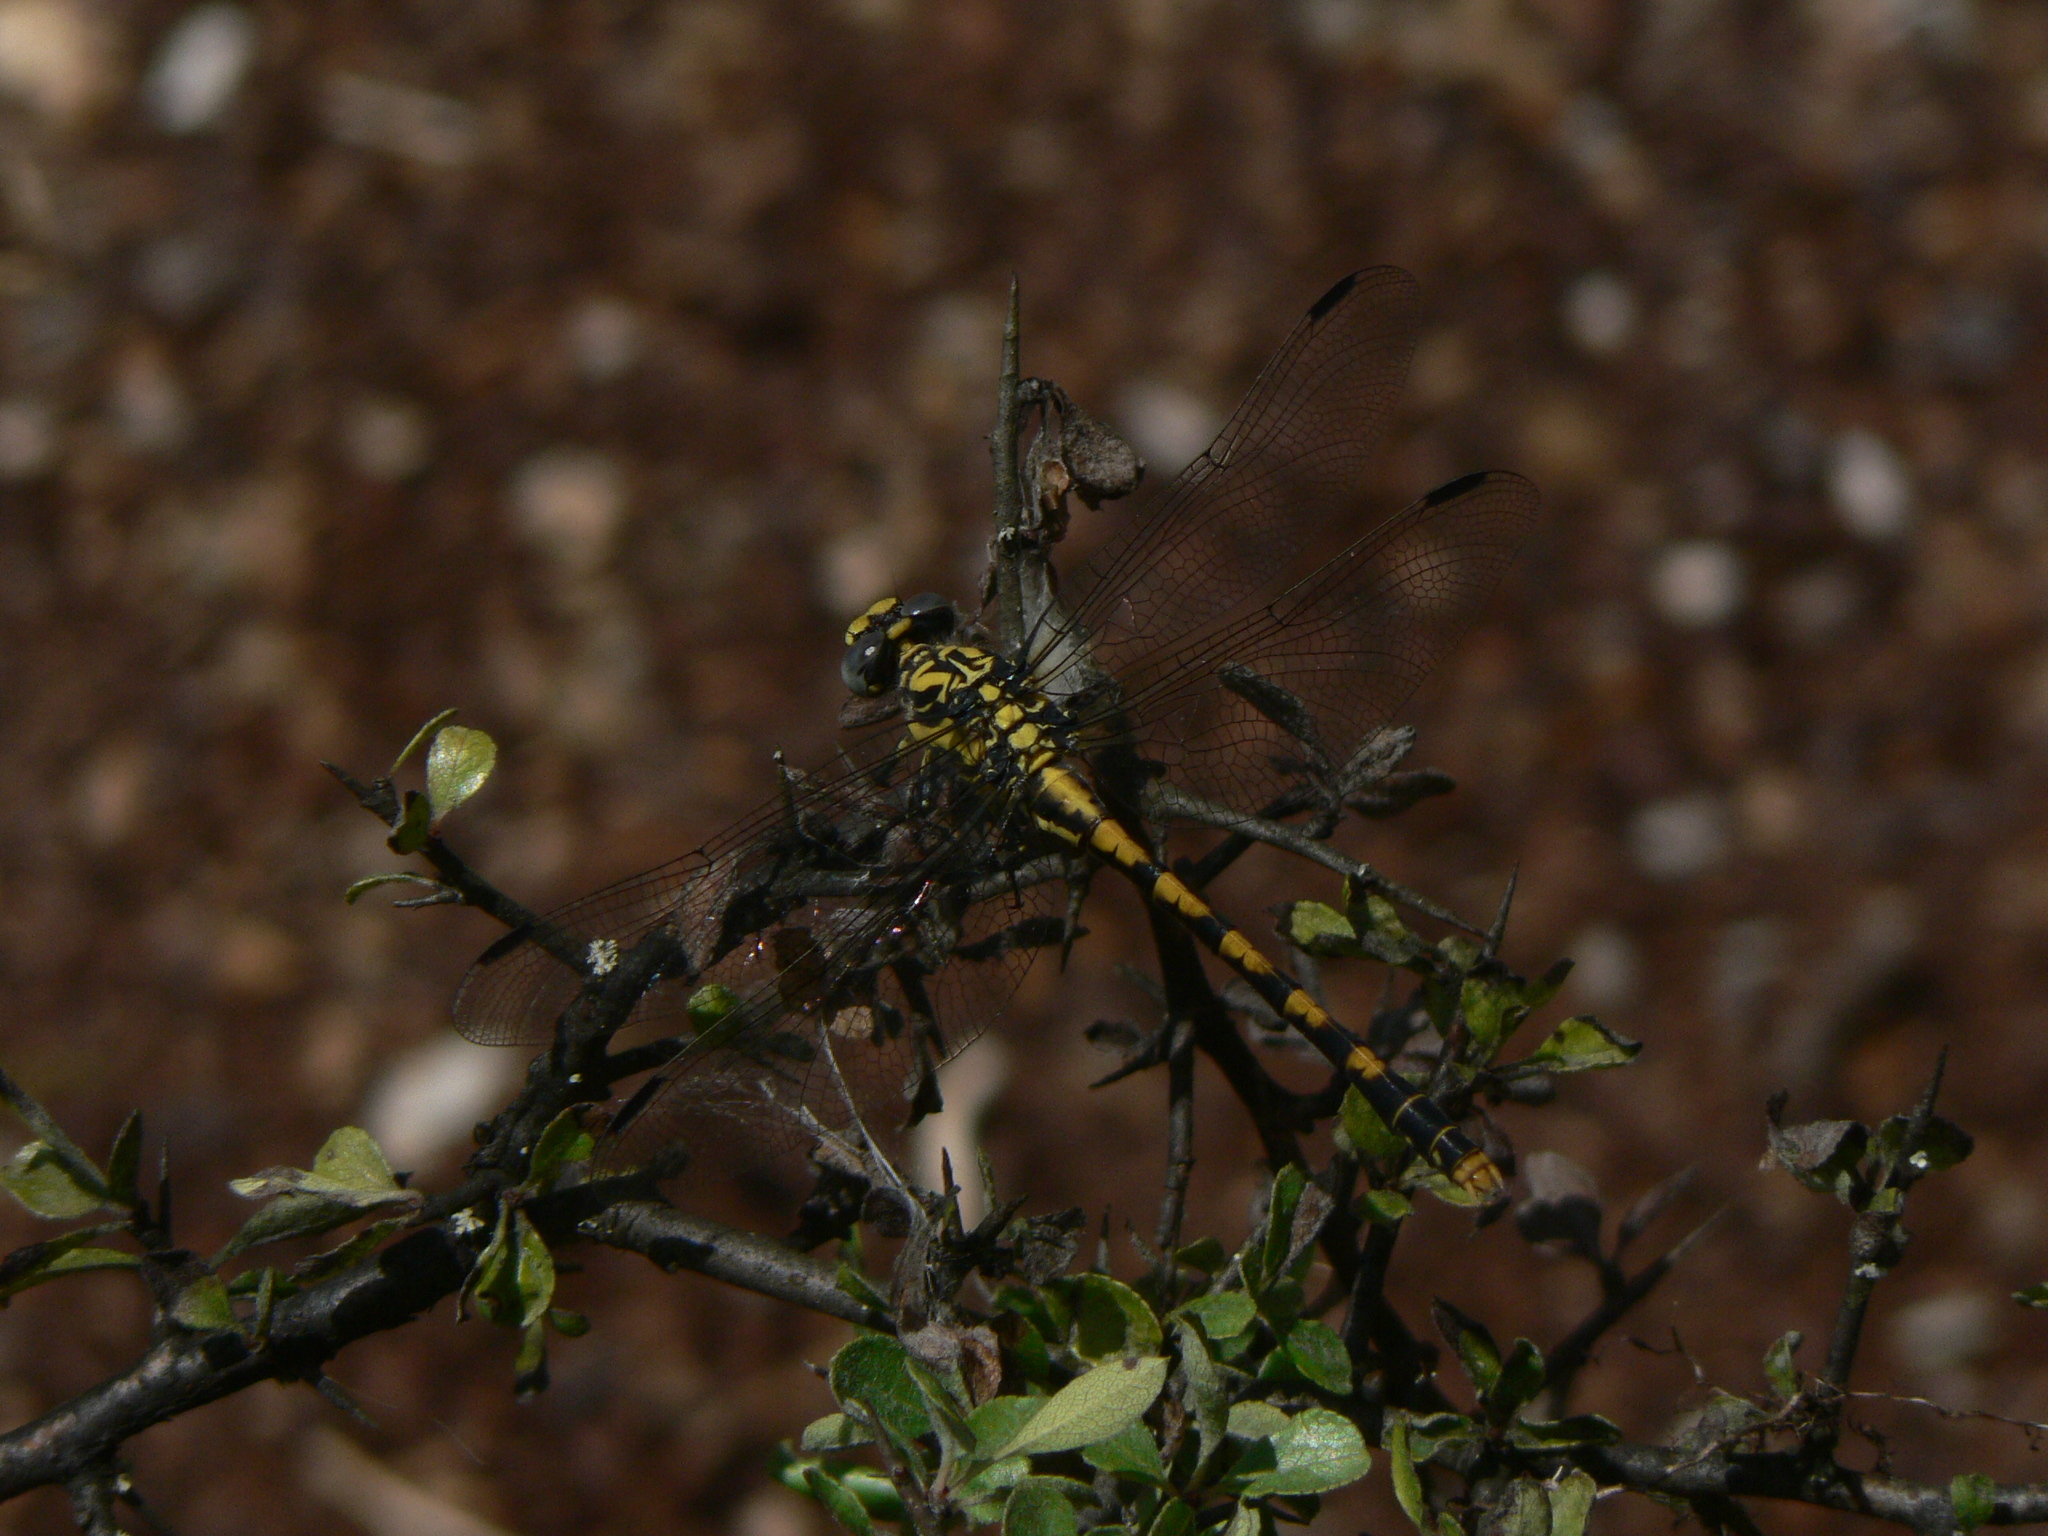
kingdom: Animalia
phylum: Arthropoda
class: Insecta
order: Odonata
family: Gomphidae
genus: Onychogomphus
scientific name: Onychogomphus uncatus
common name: Large pincertail
